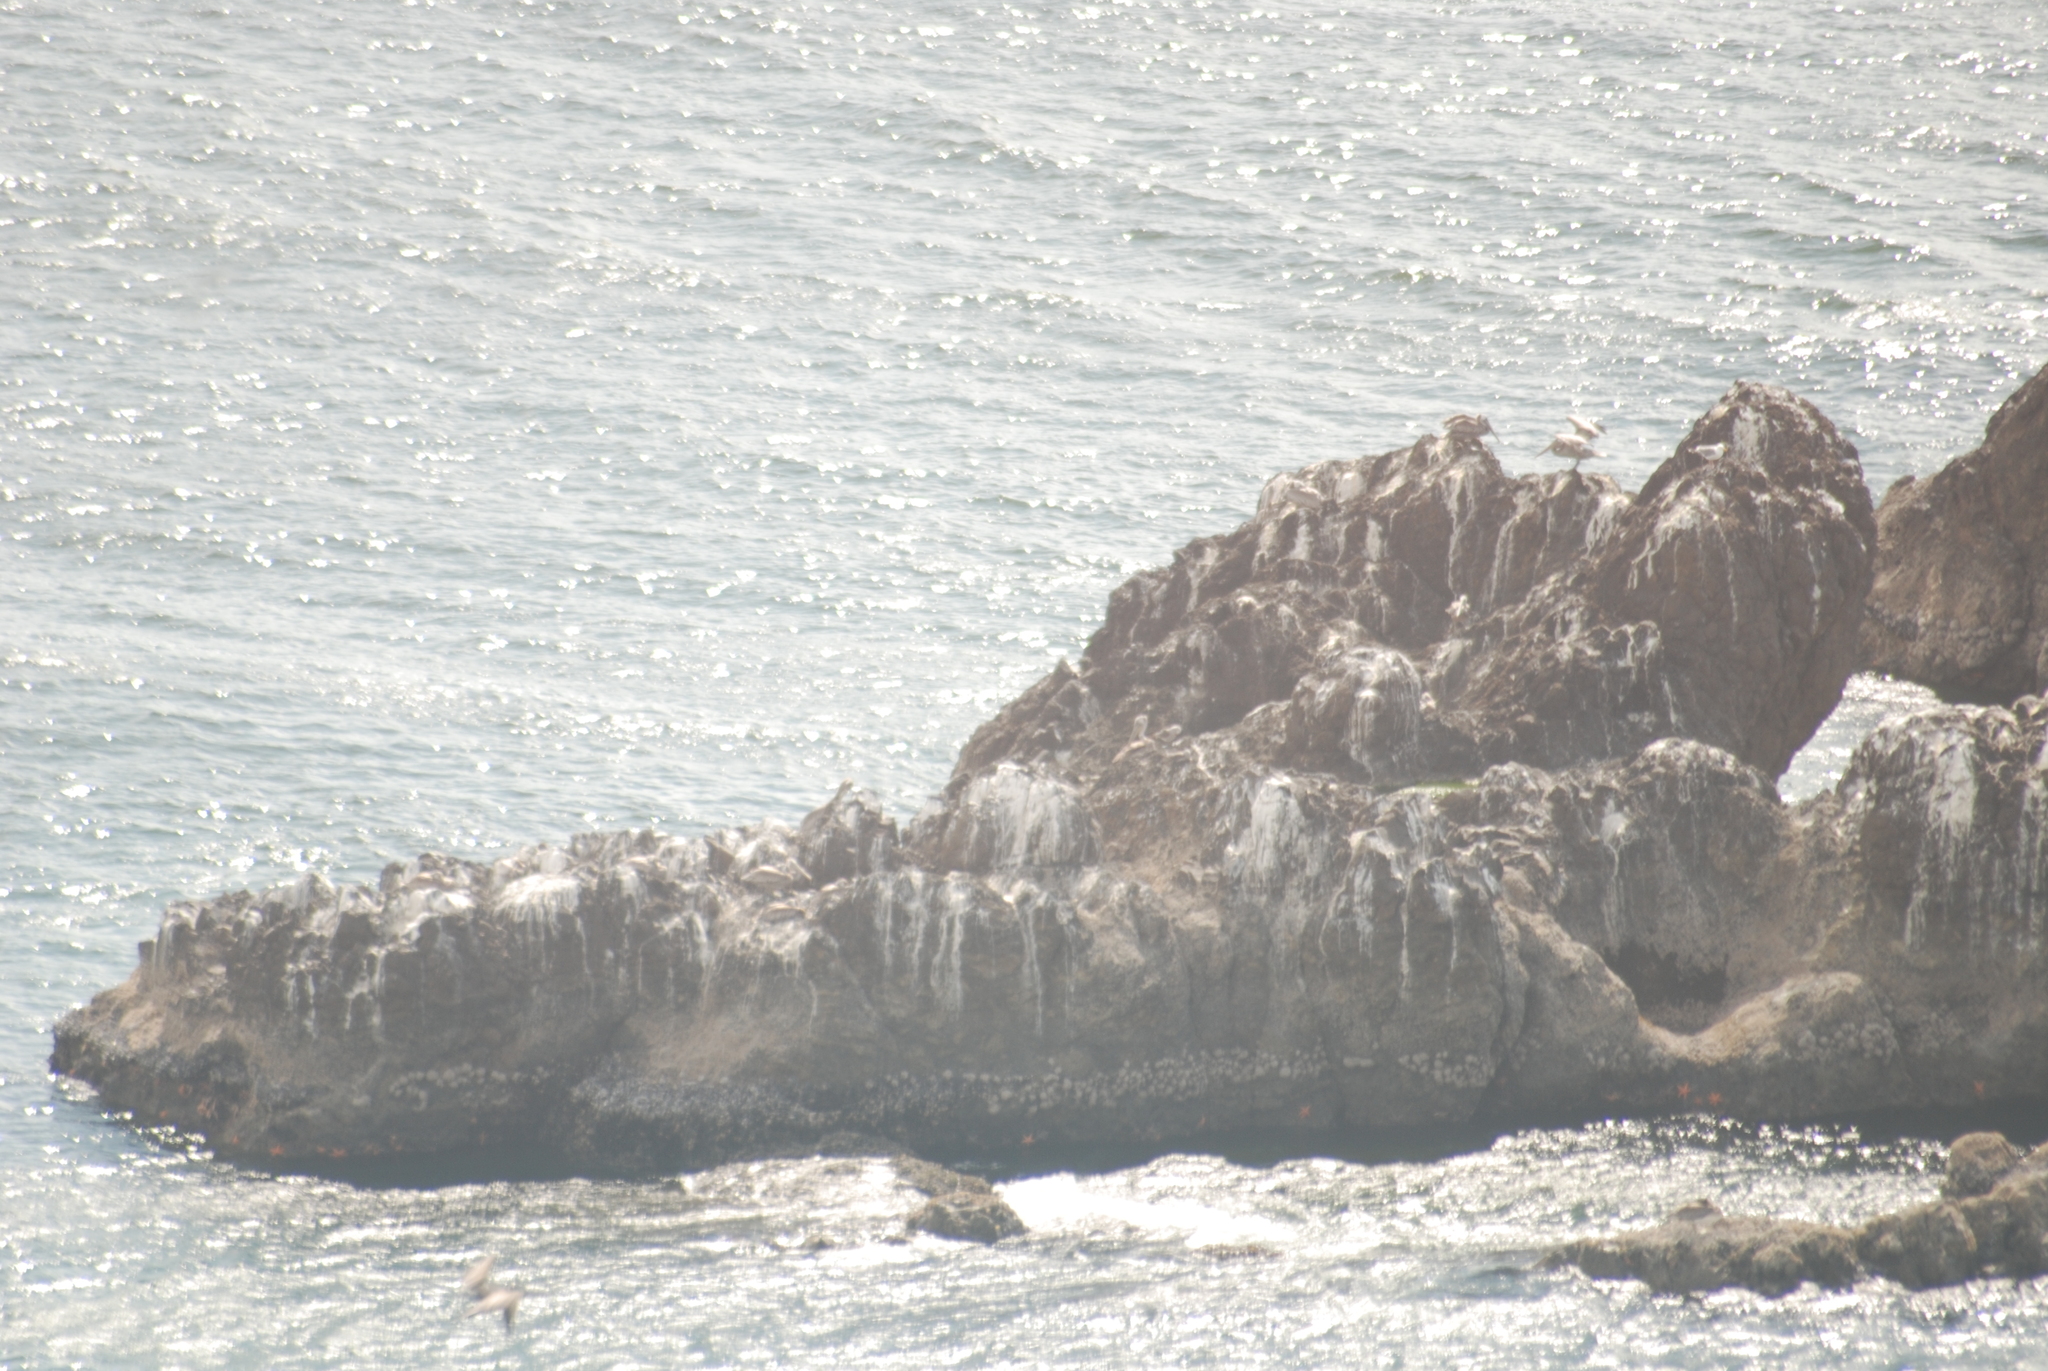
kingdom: Animalia
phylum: Chordata
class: Aves
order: Pelecaniformes
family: Pelecanidae
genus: Pelecanus
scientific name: Pelecanus occidentalis
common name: Brown pelican
